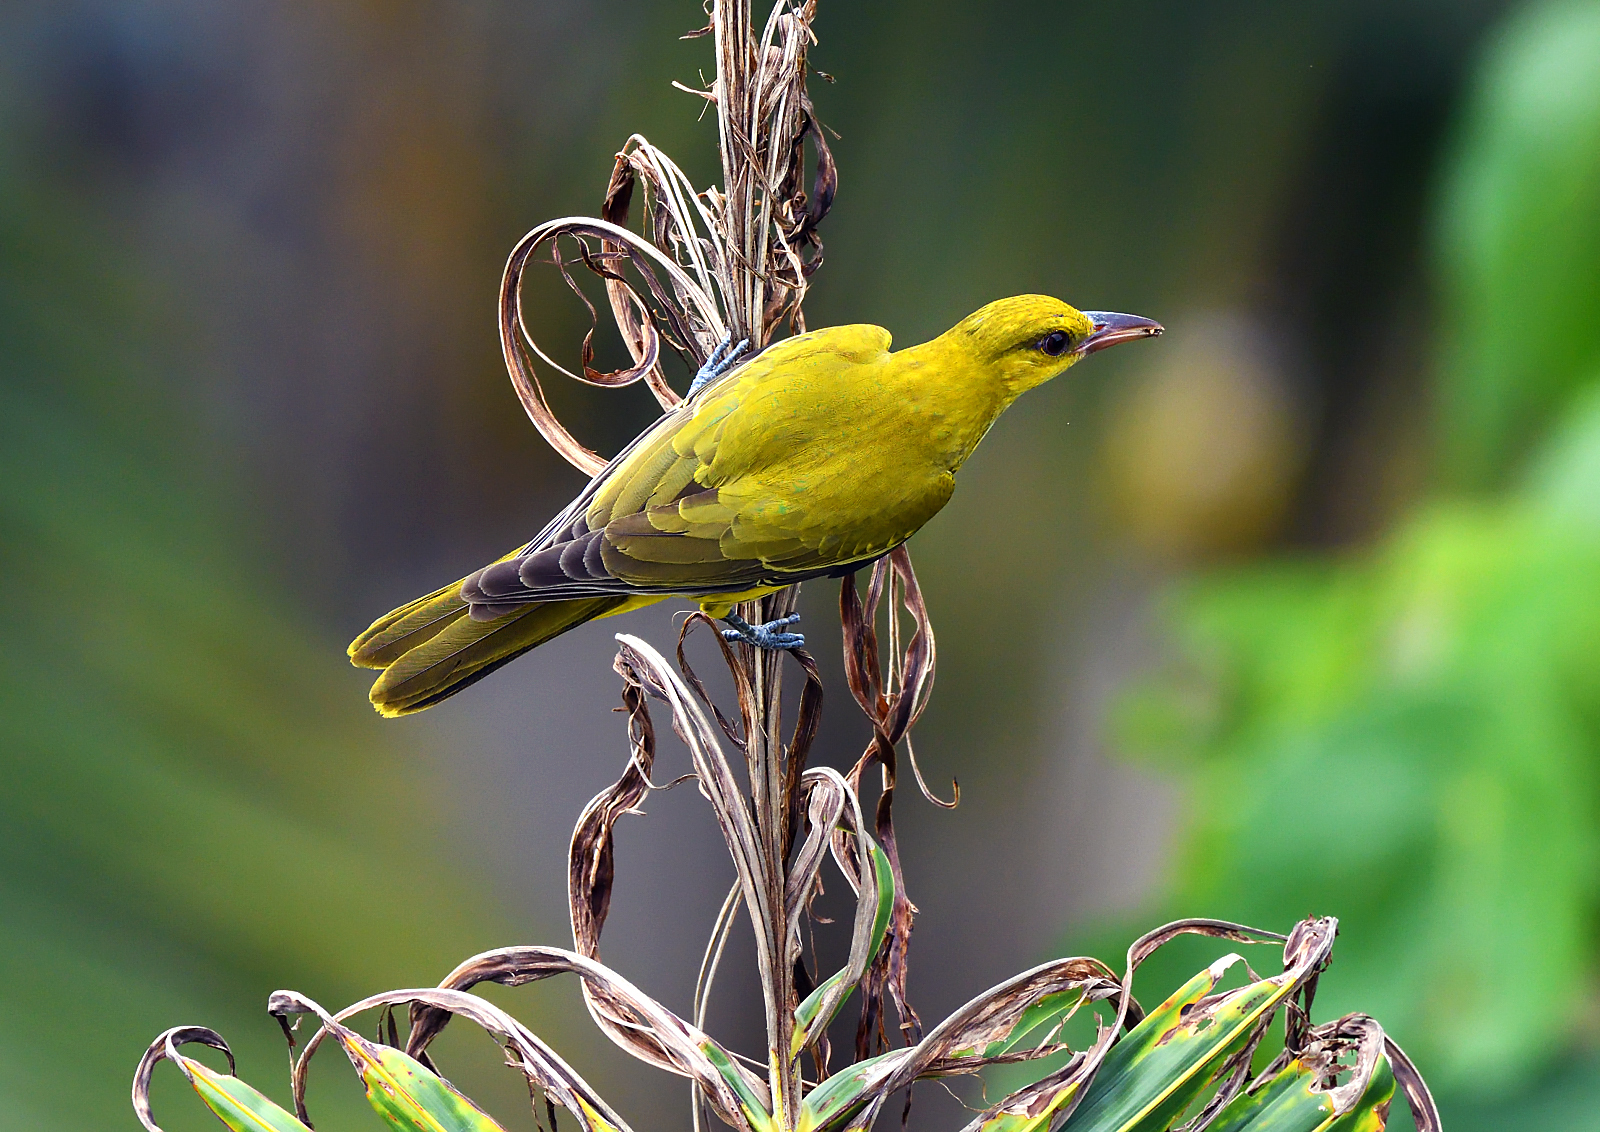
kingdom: Animalia
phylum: Chordata
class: Aves
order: Passeriformes
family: Oriolidae
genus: Oriolus
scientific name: Oriolus kundoo
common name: Indian golden oriole
